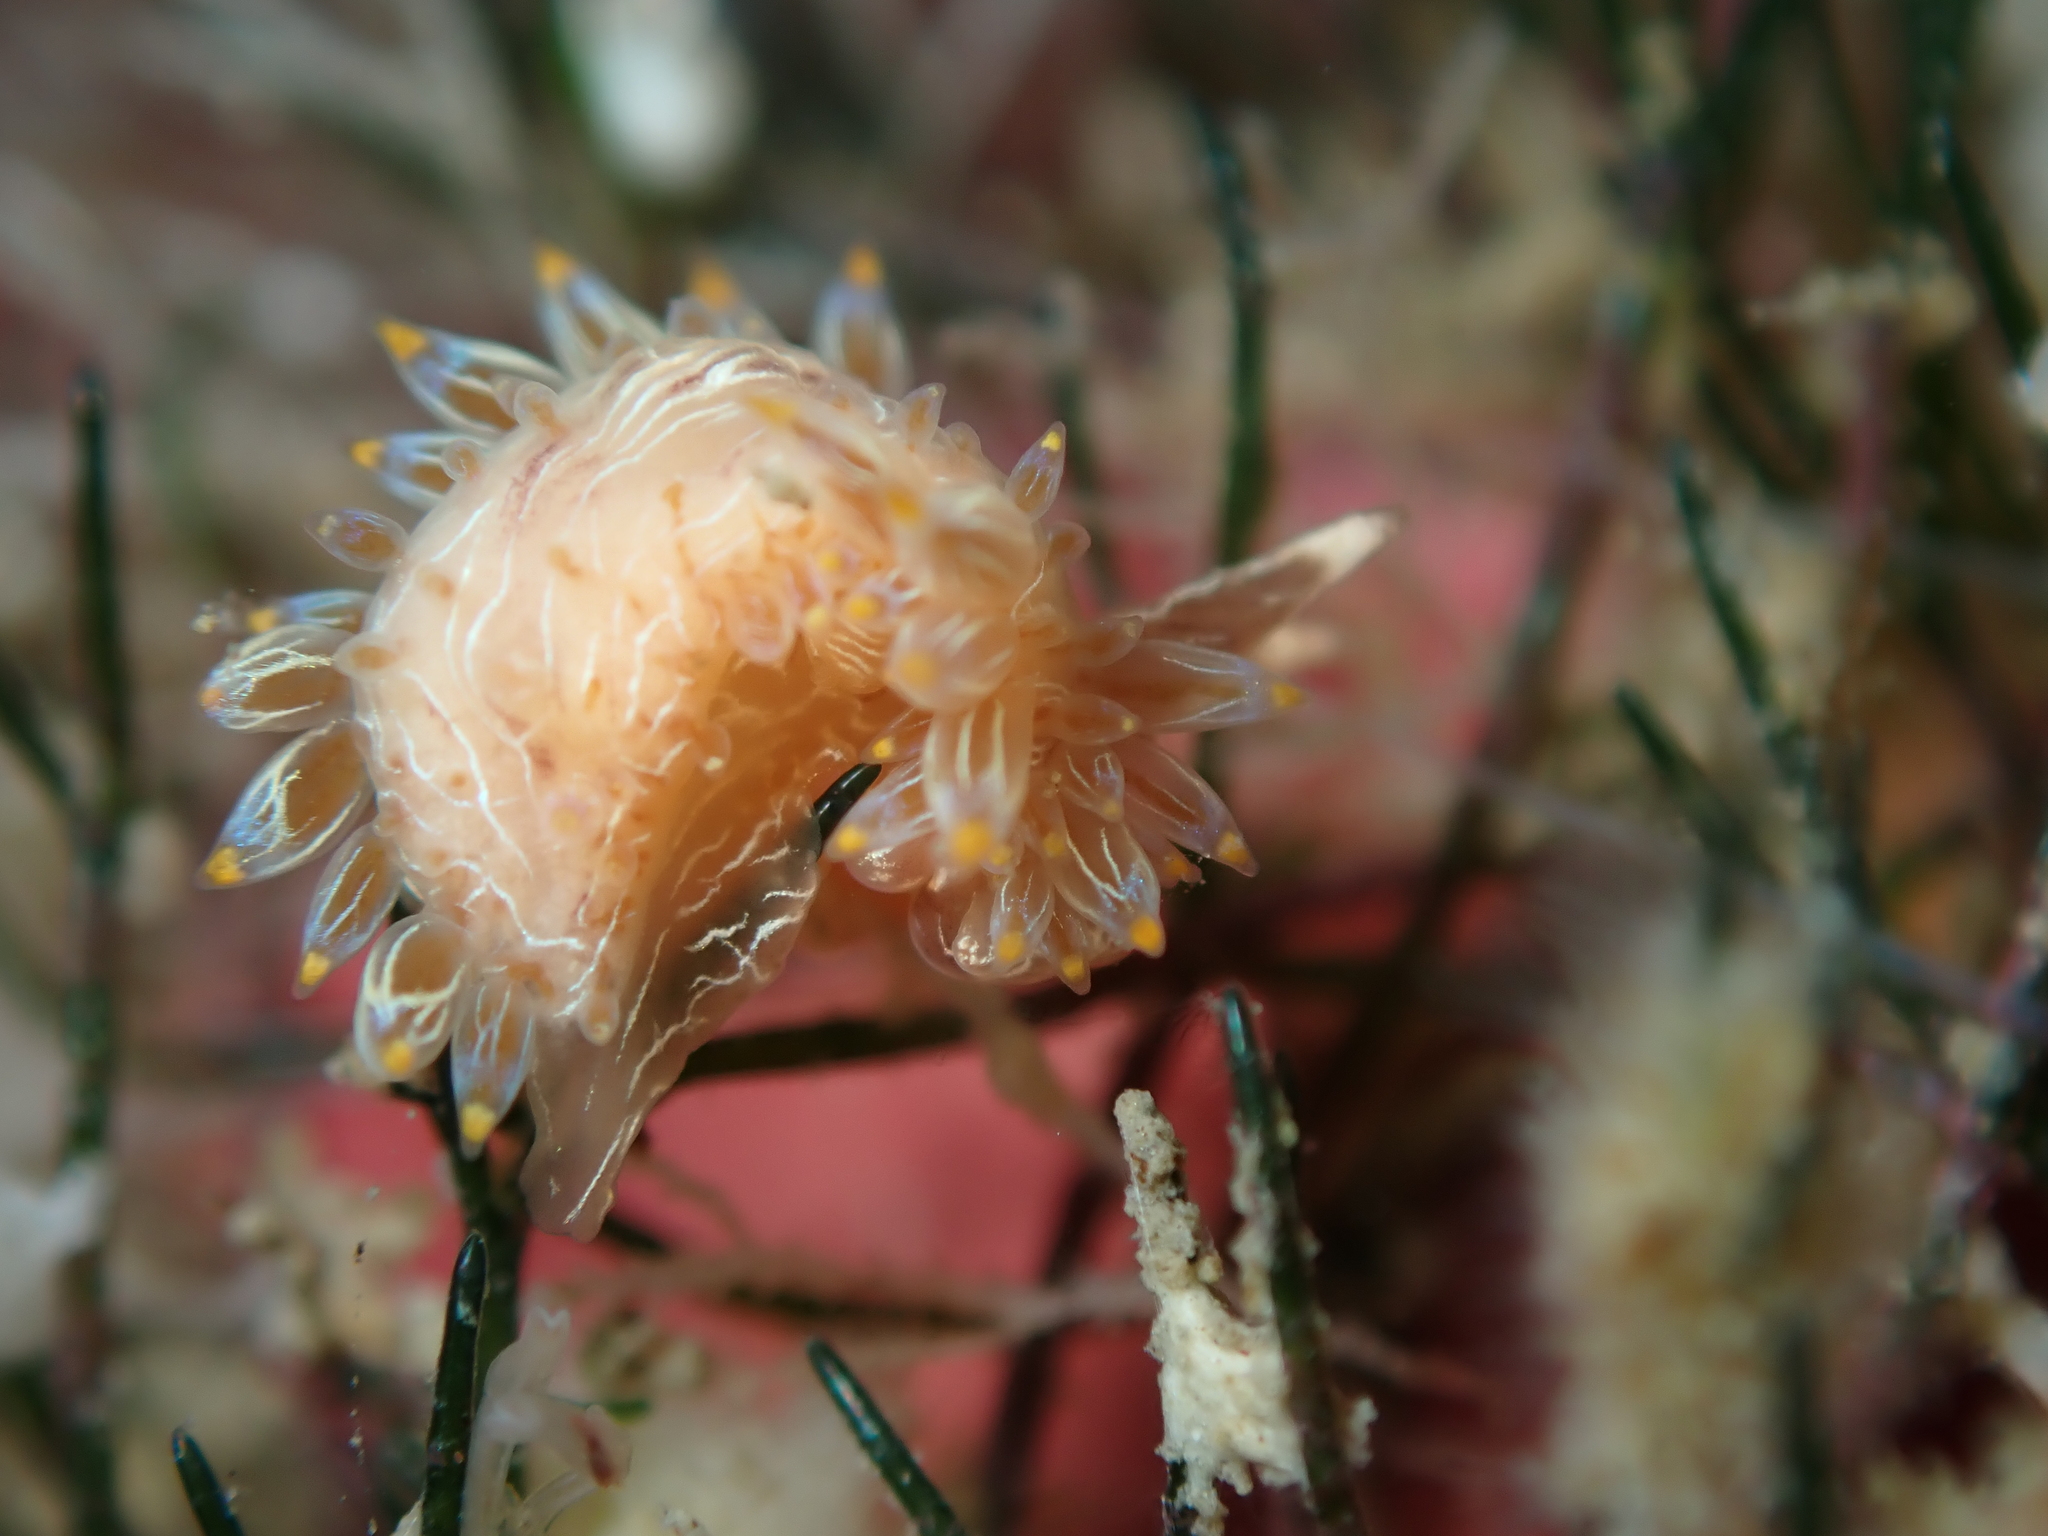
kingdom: Animalia
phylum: Mollusca
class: Gastropoda
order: Nudibranchia
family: Janolidae
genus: Janolus
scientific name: Janolus eximius
